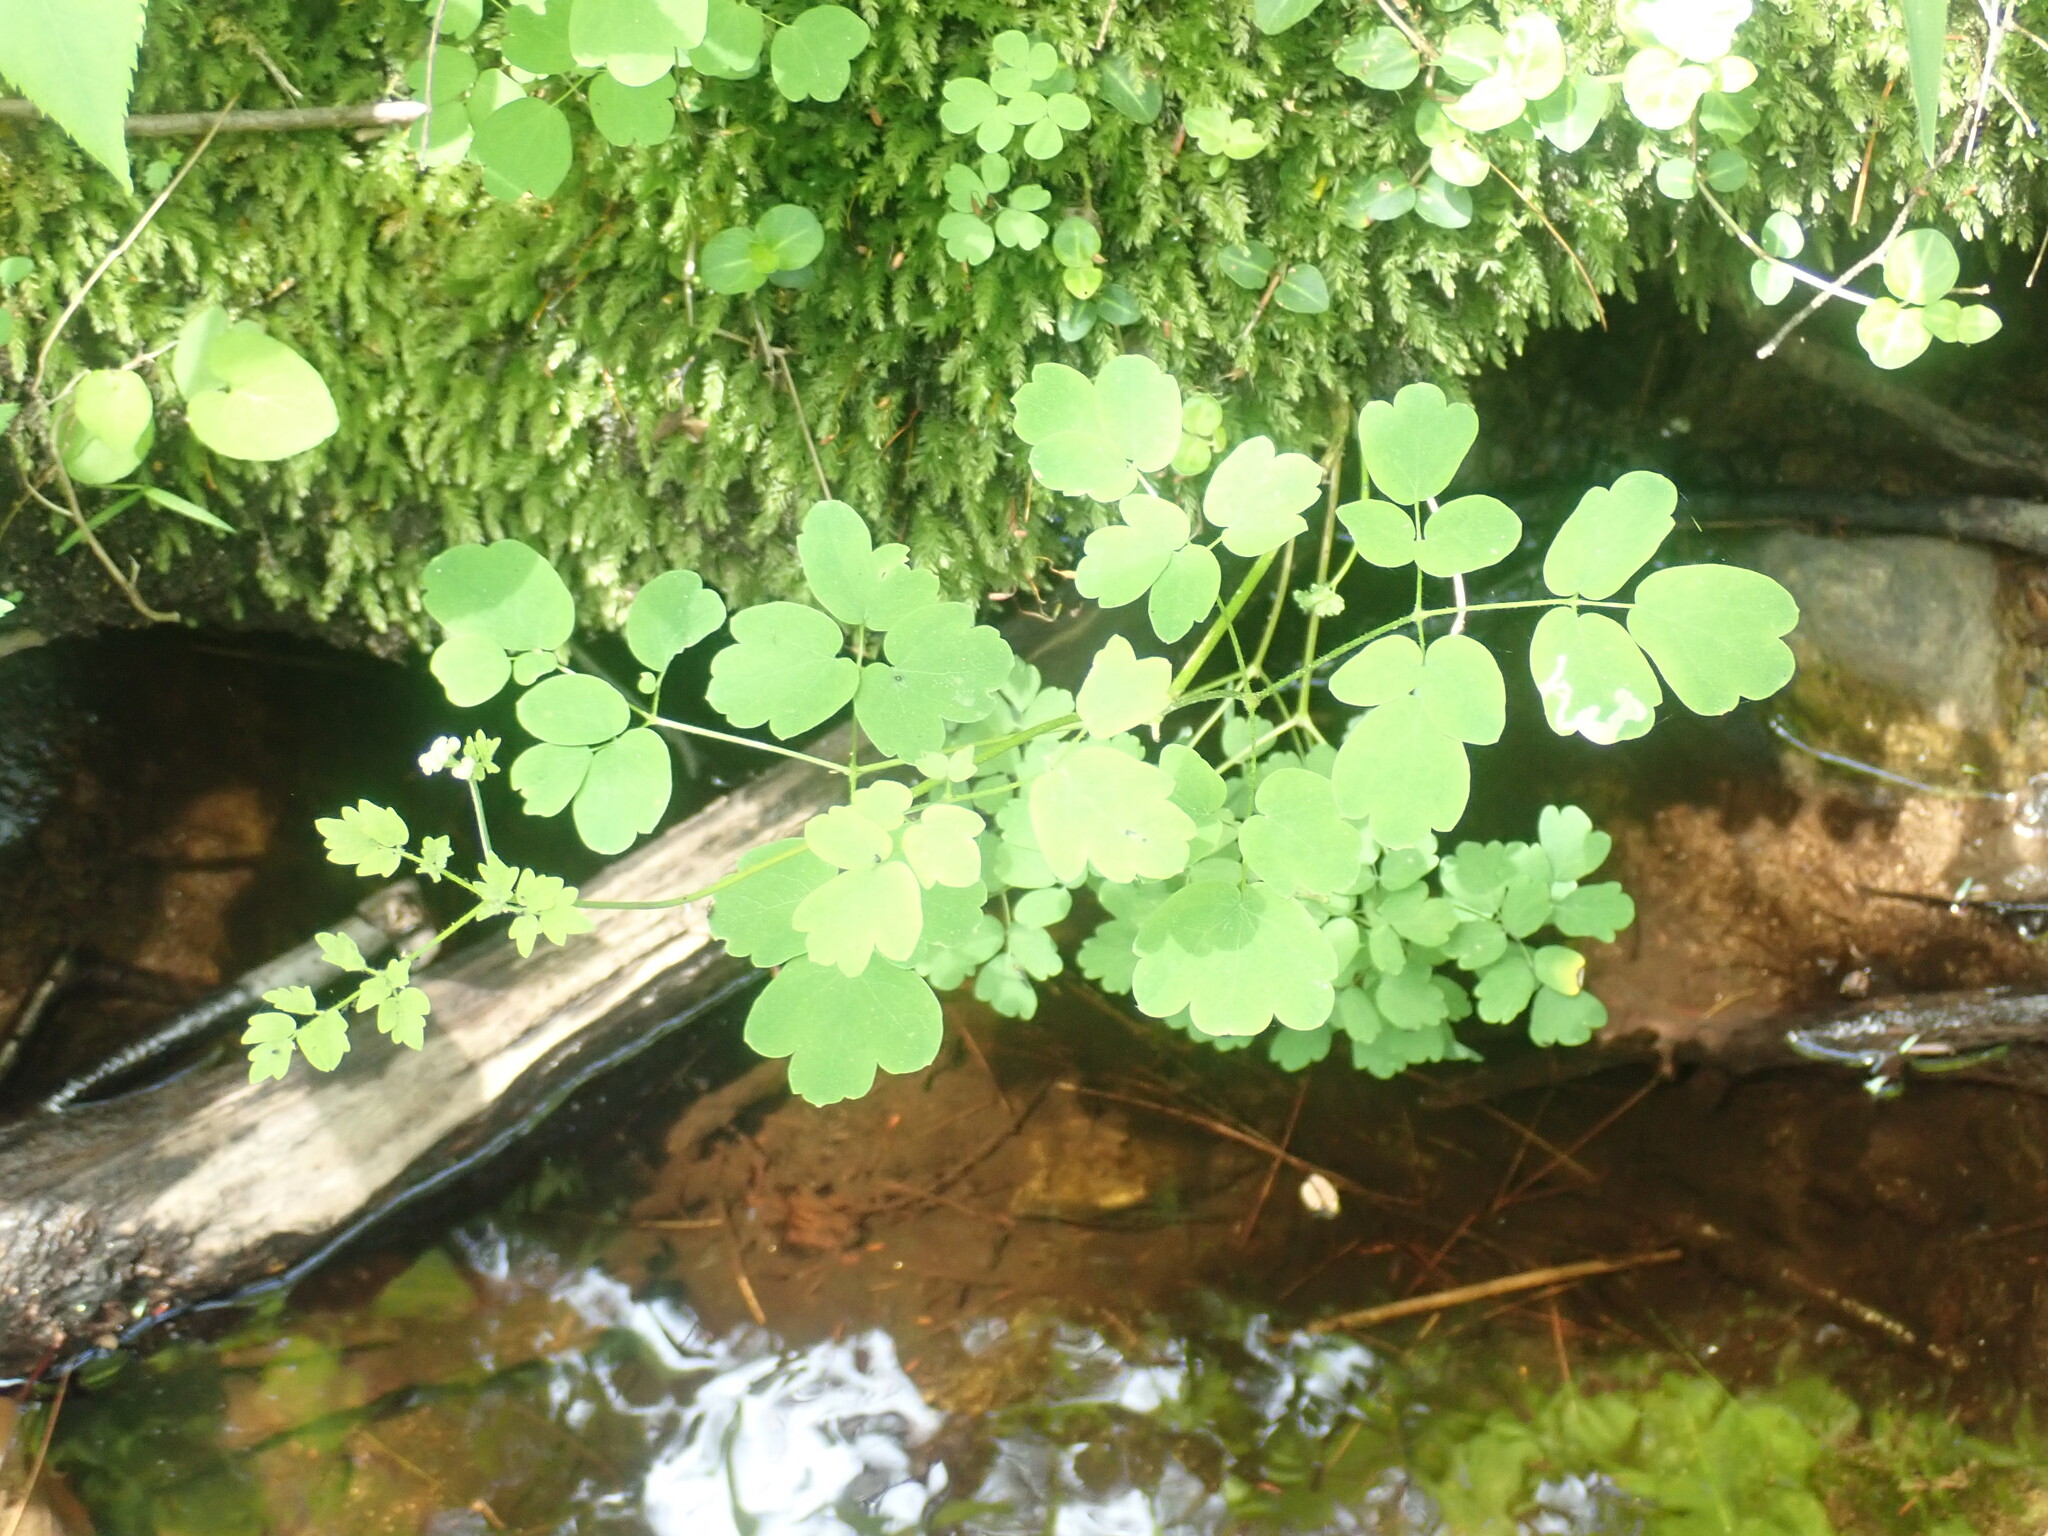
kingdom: Plantae
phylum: Tracheophyta
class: Magnoliopsida
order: Ranunculales
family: Ranunculaceae
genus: Thalictrum
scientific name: Thalictrum pubescens
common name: King-of-the-meadow
